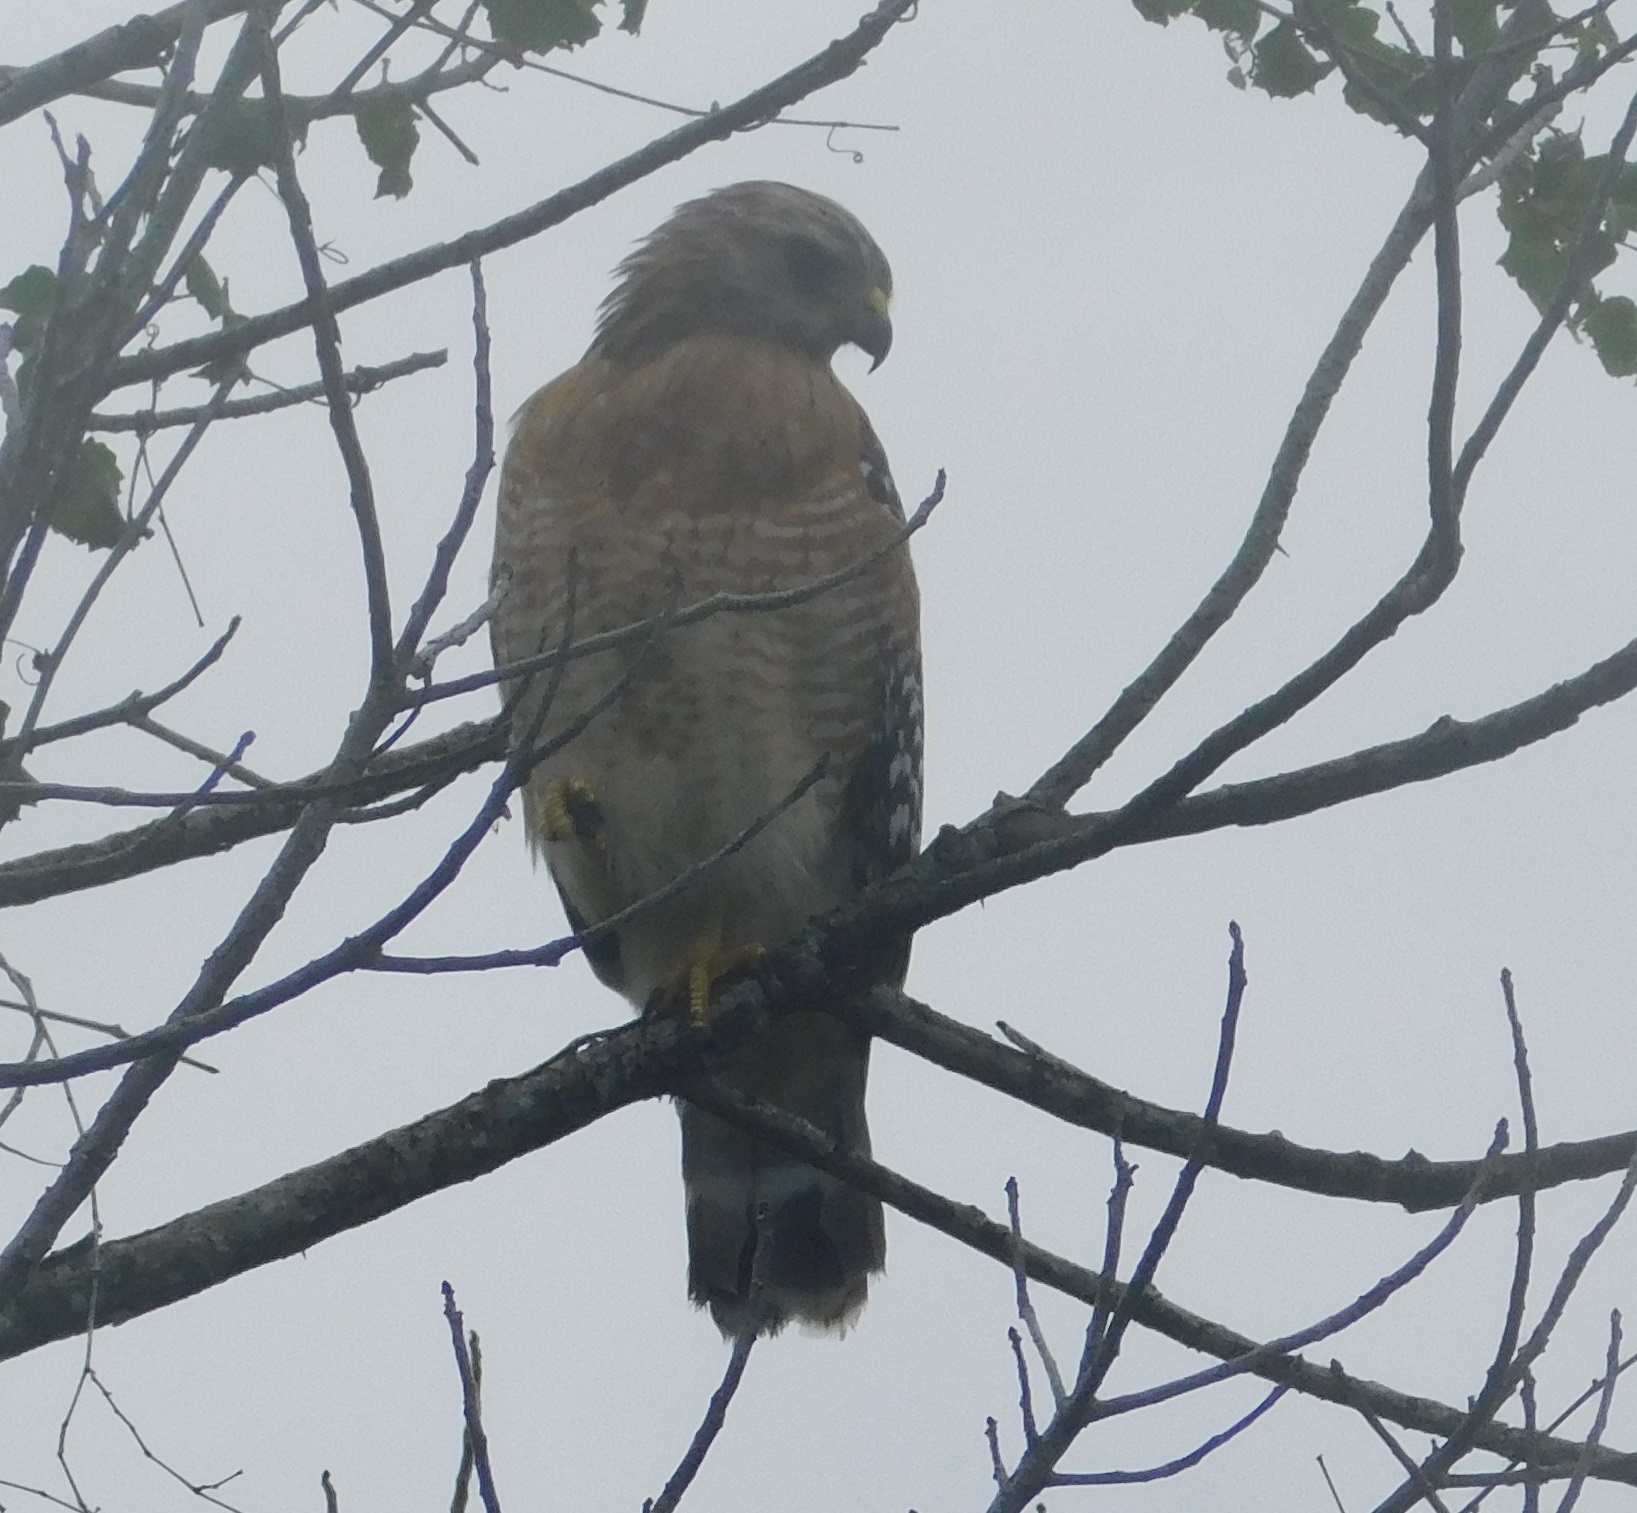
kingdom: Animalia
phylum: Chordata
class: Aves
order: Accipitriformes
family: Accipitridae
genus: Buteo
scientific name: Buteo lineatus
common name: Red-shouldered hawk
